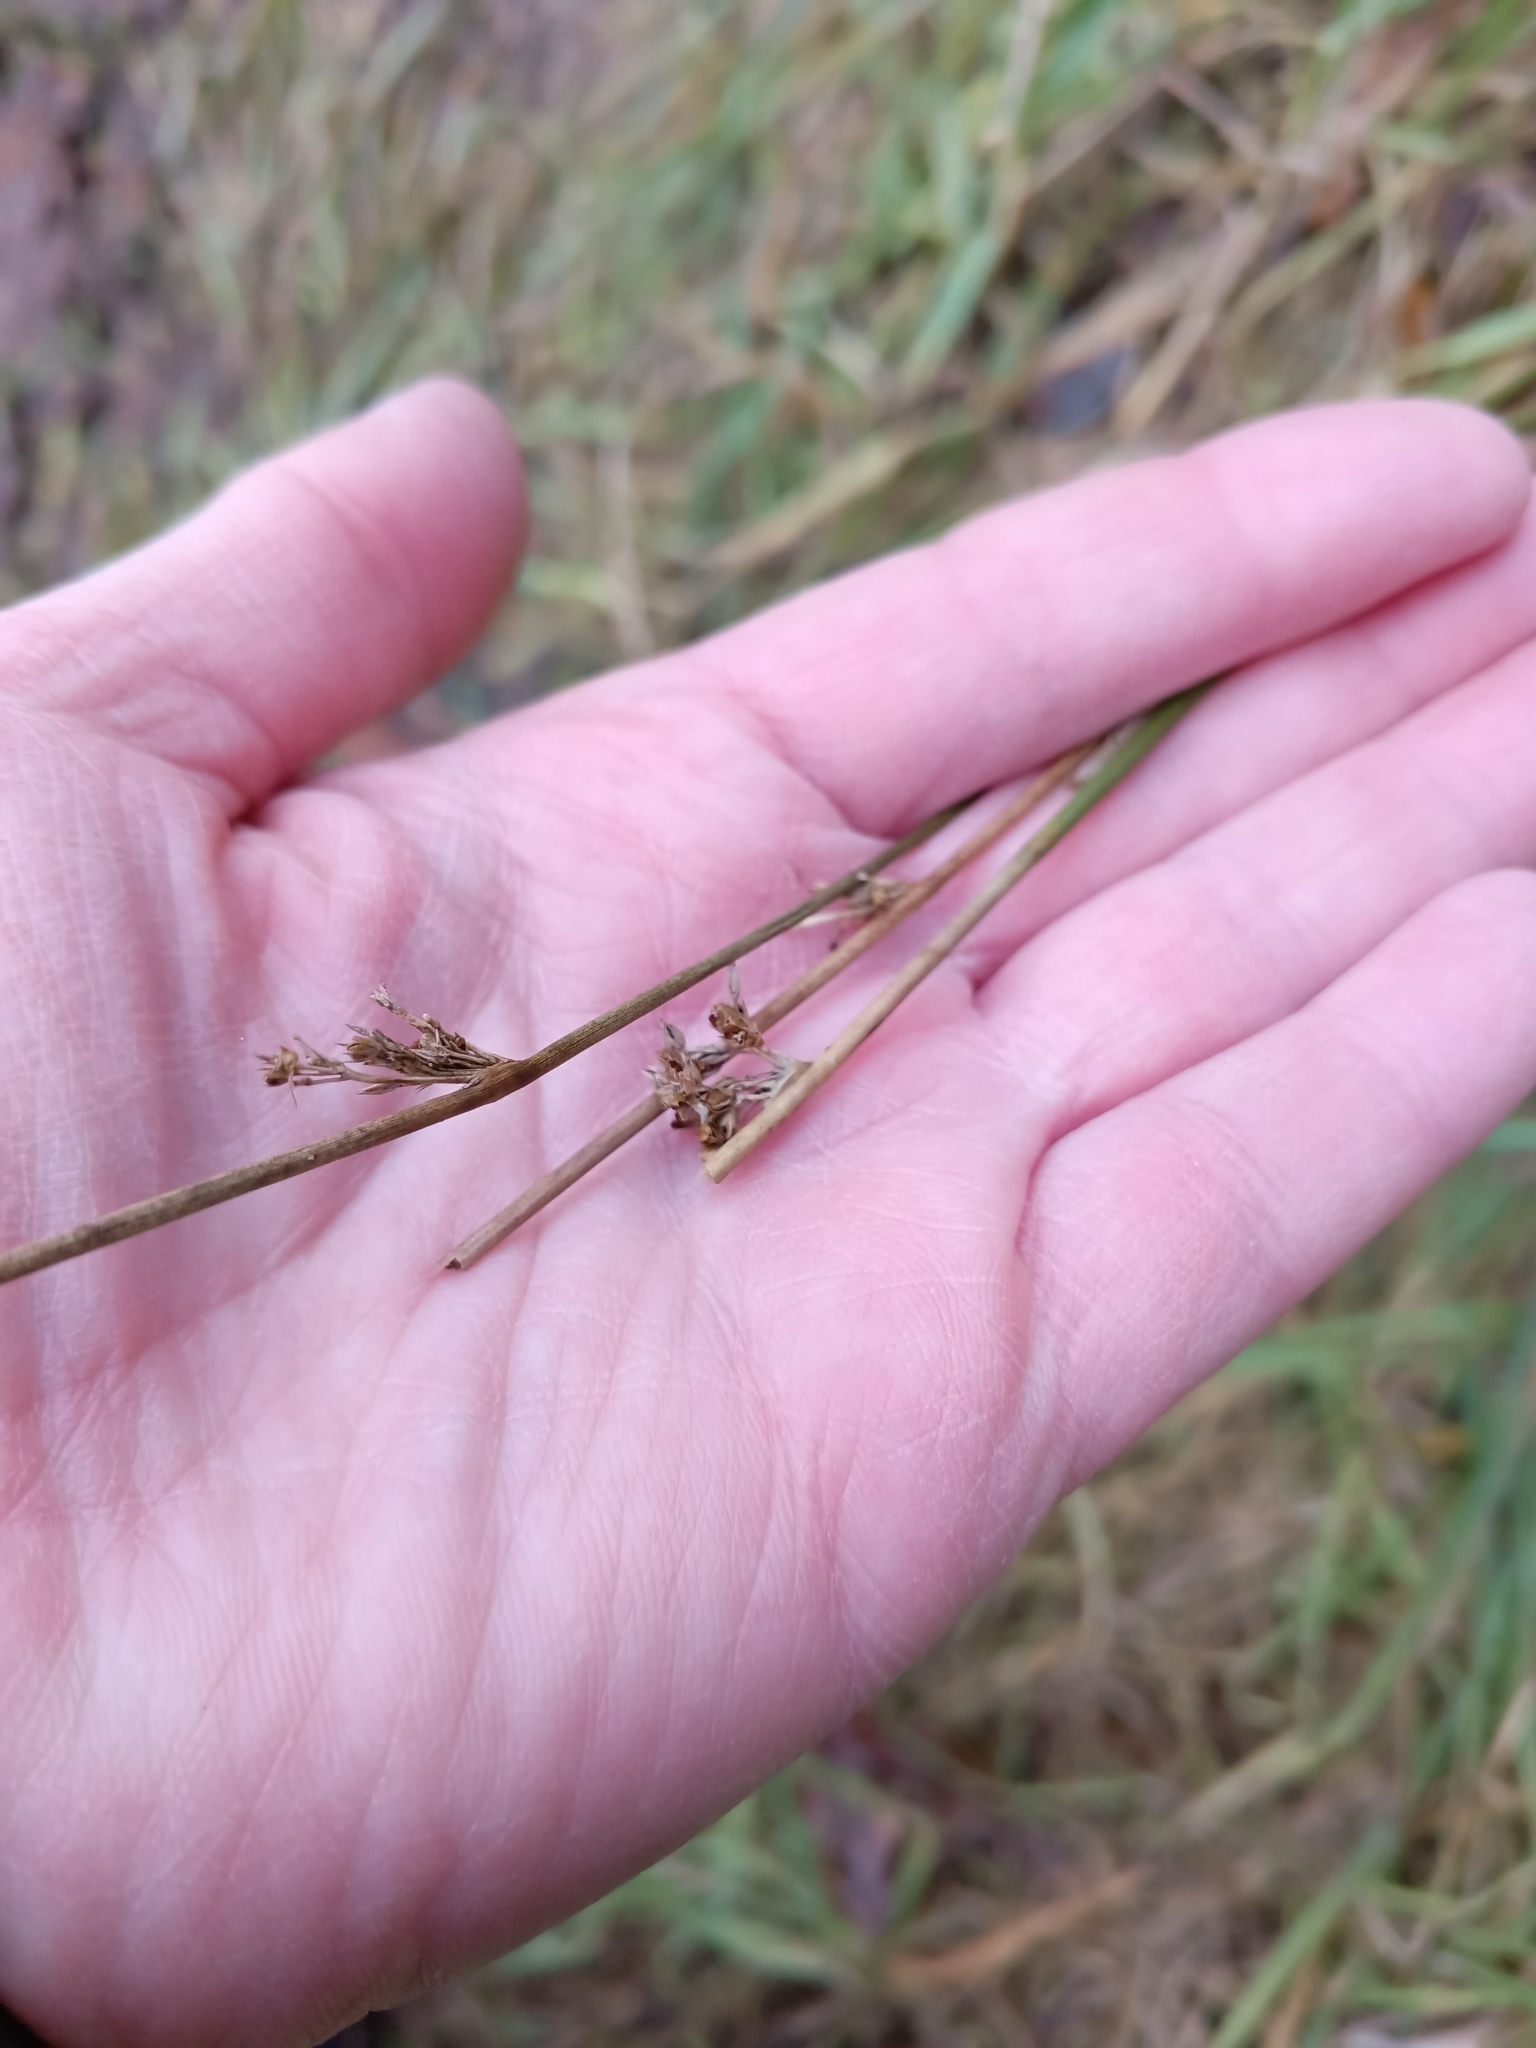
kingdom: Plantae
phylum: Tracheophyta
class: Liliopsida
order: Poales
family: Juncaceae
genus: Juncus
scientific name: Juncus effusus
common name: Soft rush
